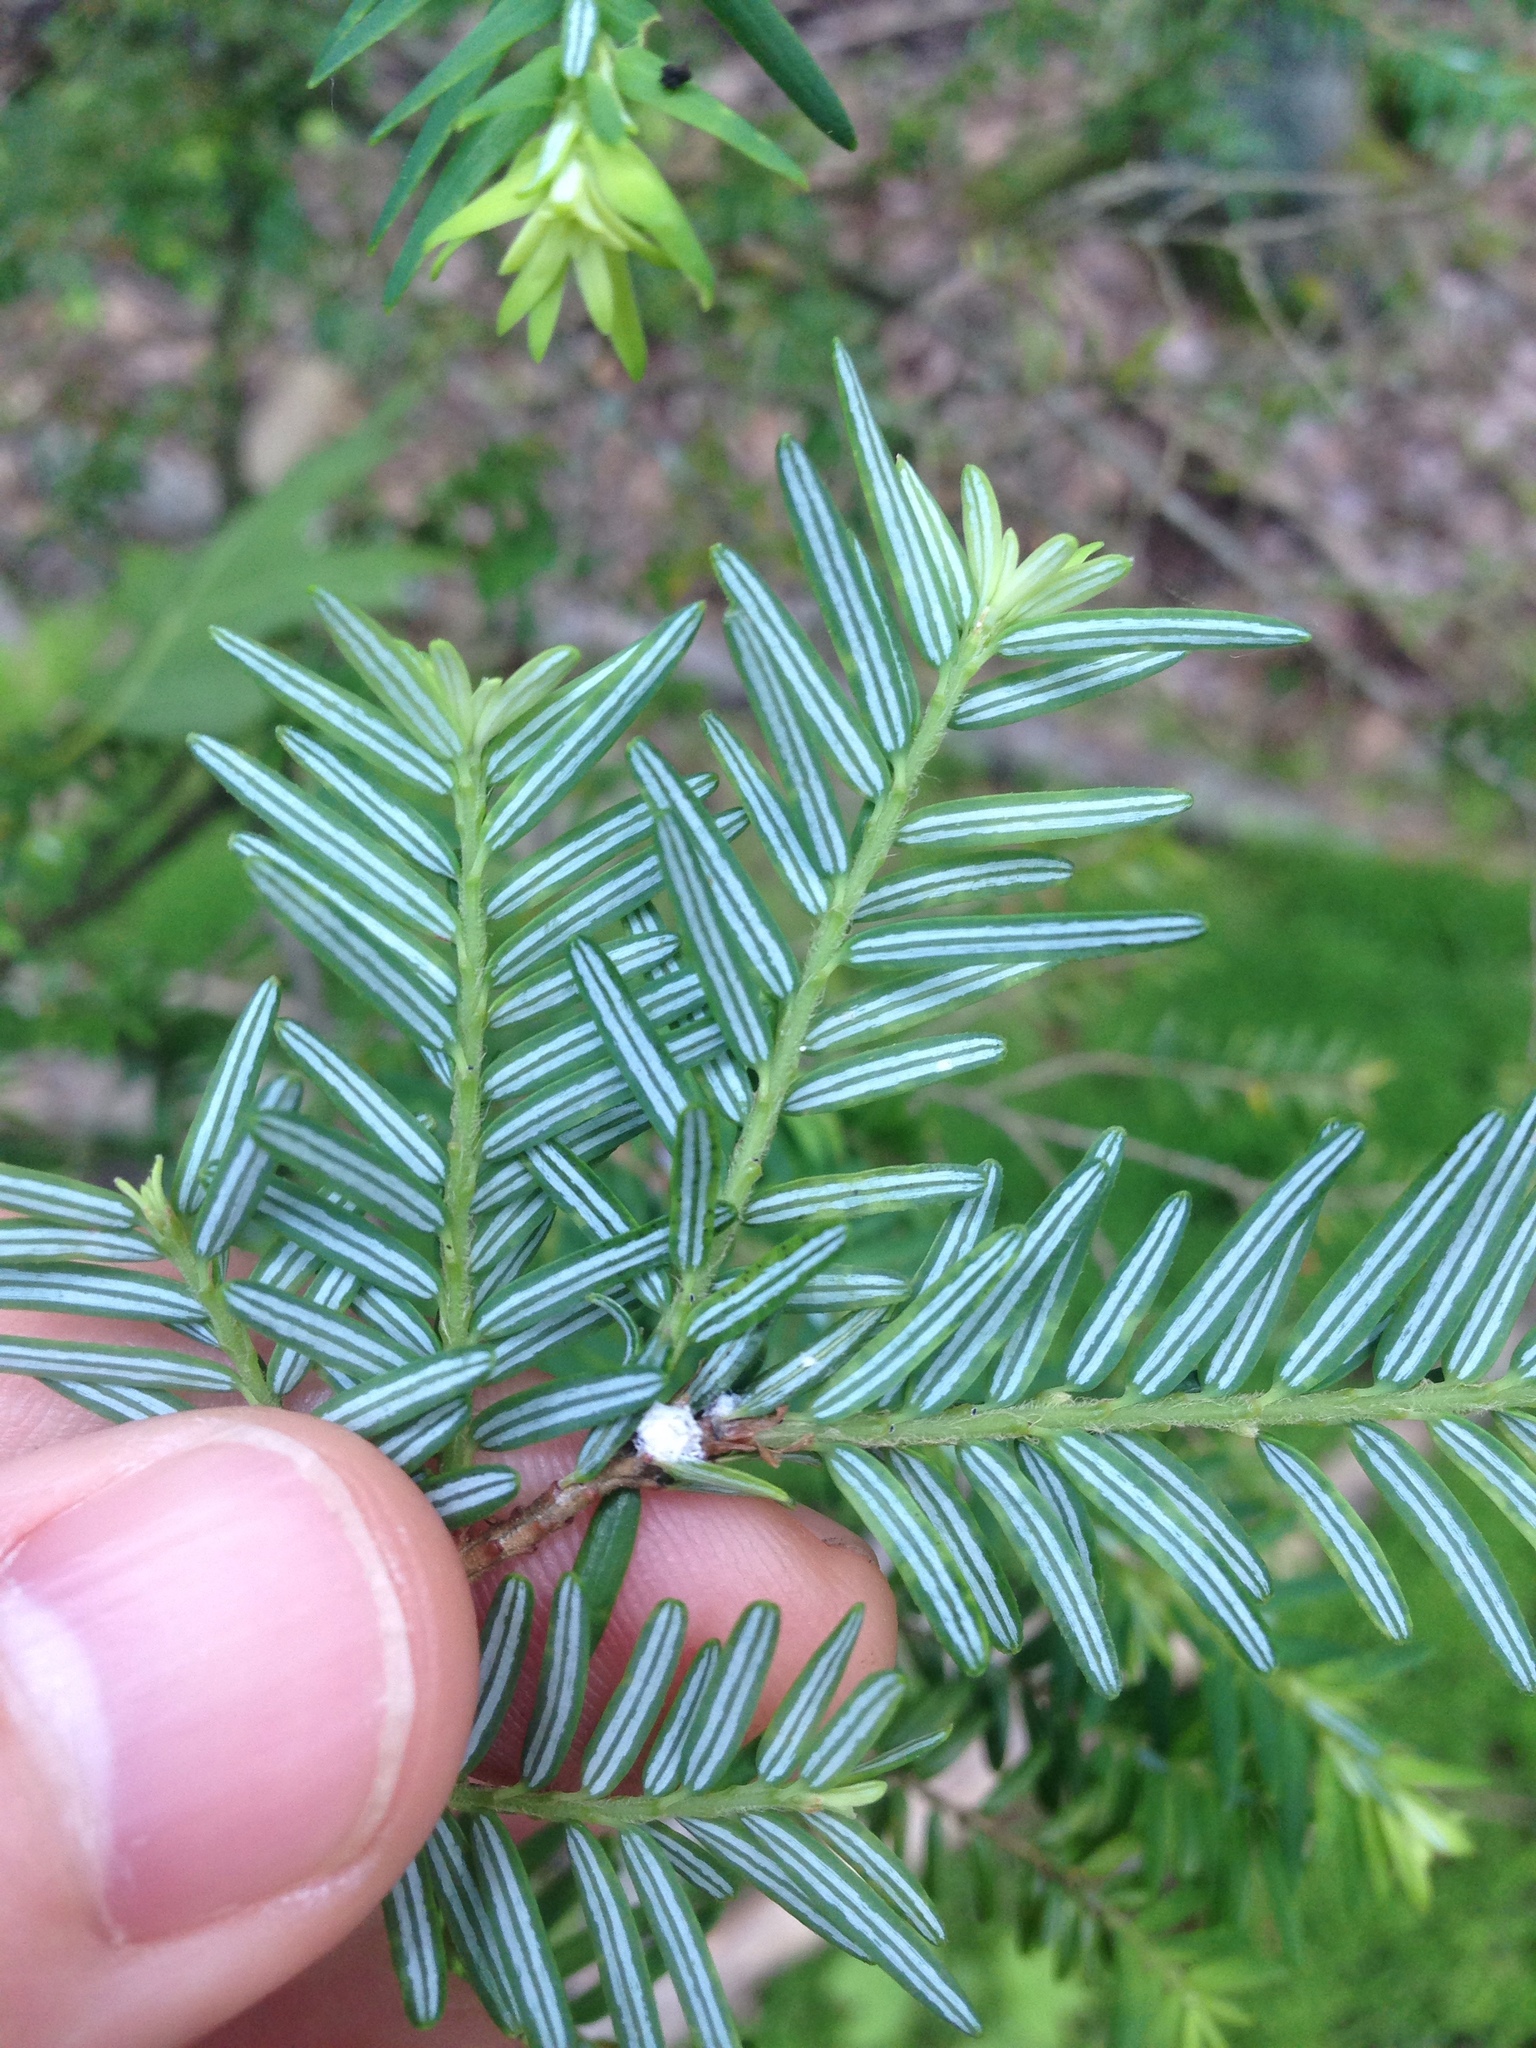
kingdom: Animalia
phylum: Arthropoda
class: Insecta
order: Hemiptera
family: Adelgidae
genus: Adelges
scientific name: Adelges tsugae
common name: Hemlock woolly adelgid
